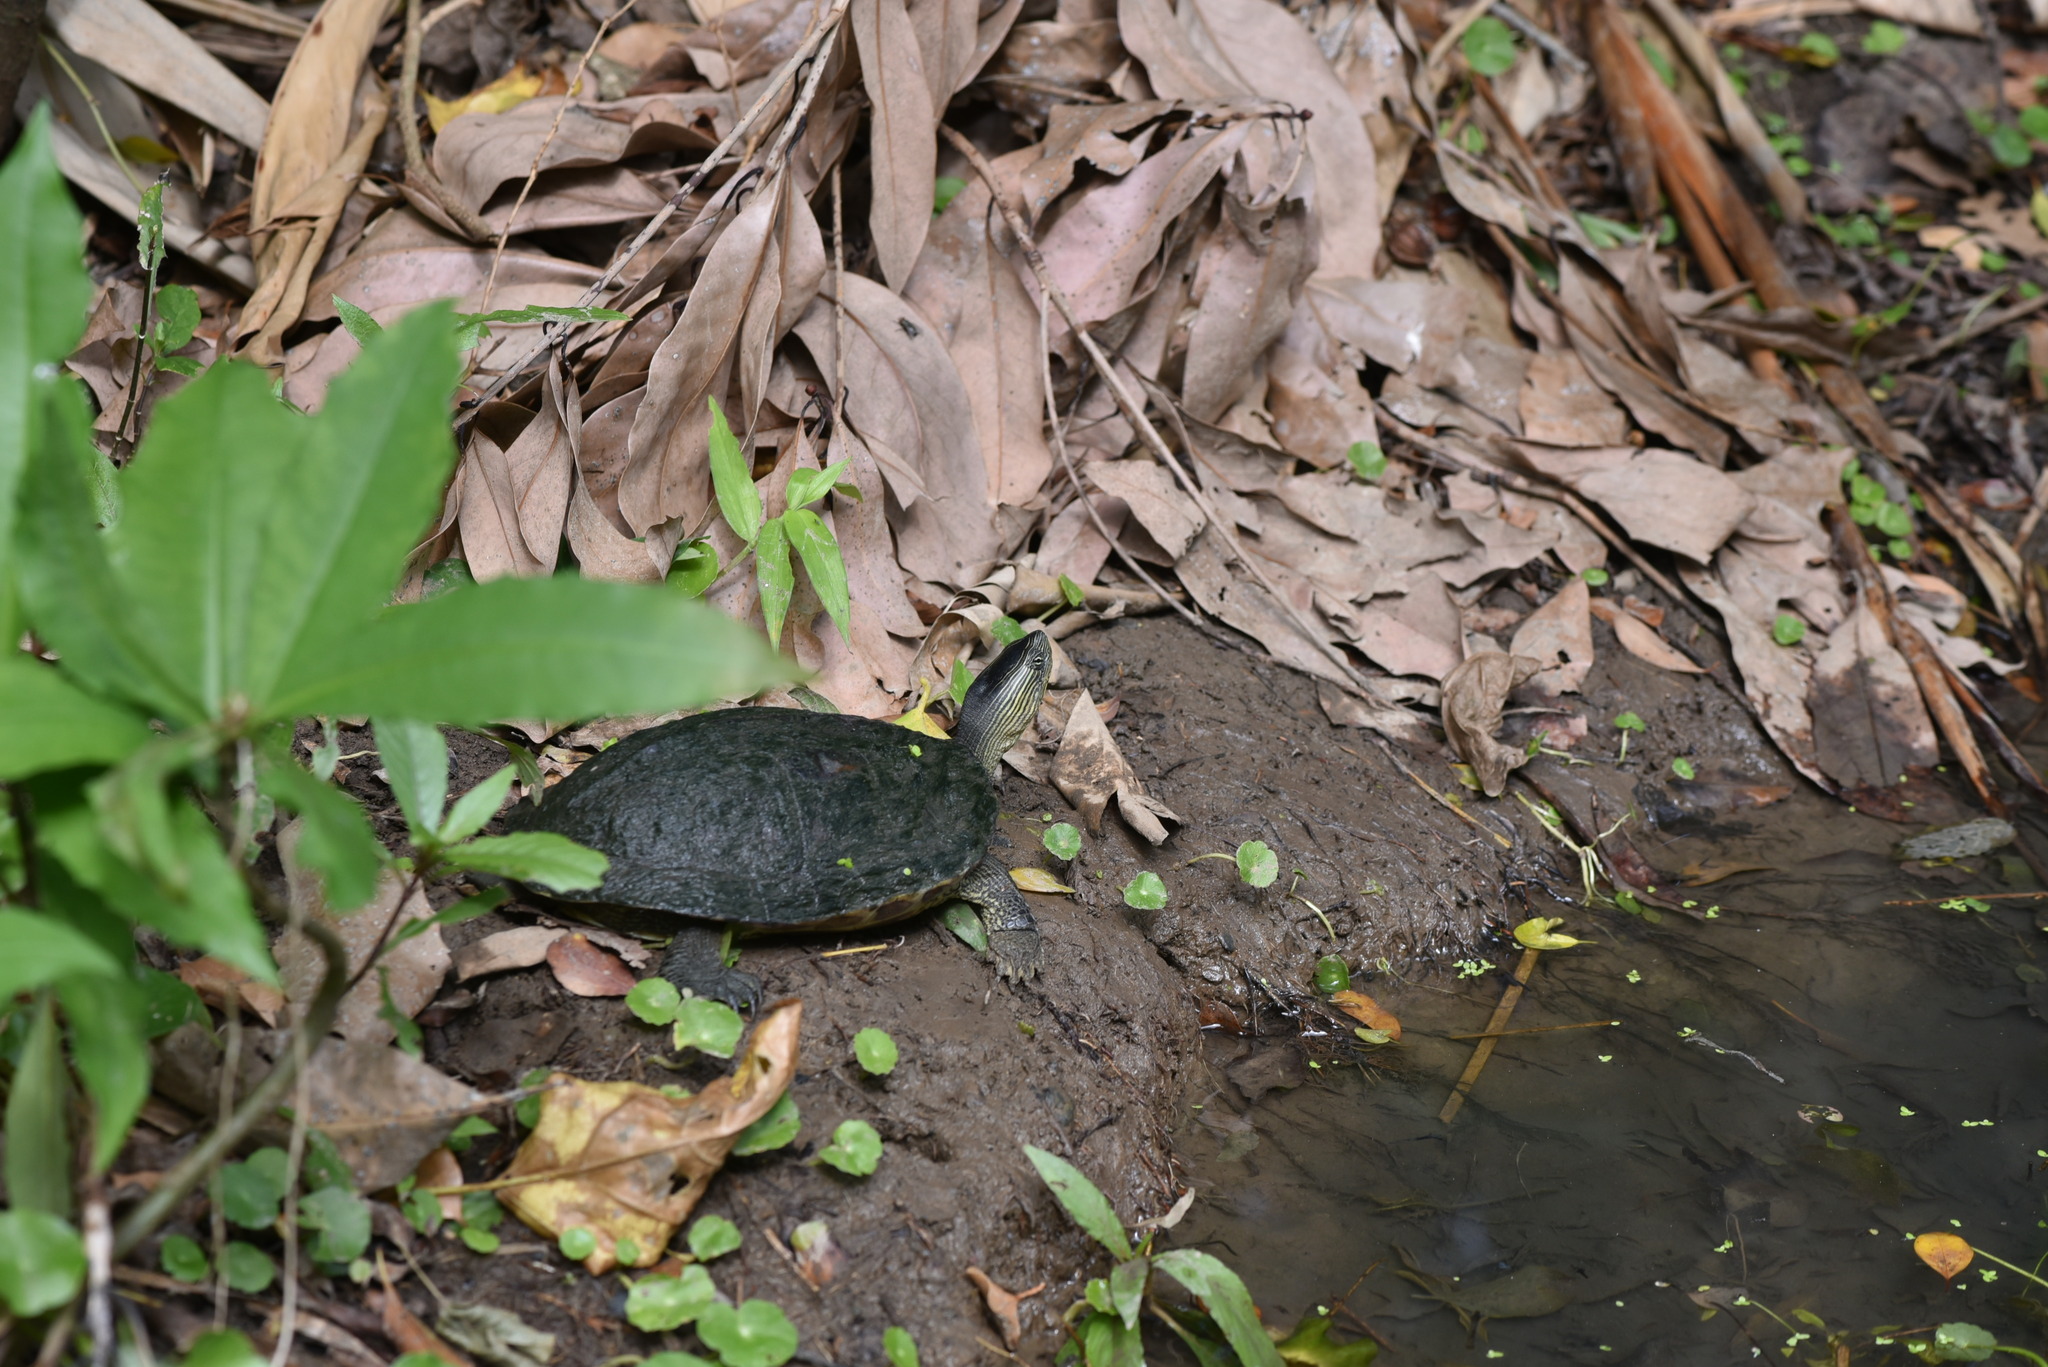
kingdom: Animalia
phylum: Chordata
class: Testudines
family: Geoemydidae
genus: Mauremys
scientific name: Mauremys sinensis
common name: Chinese stripe-necked turtle
